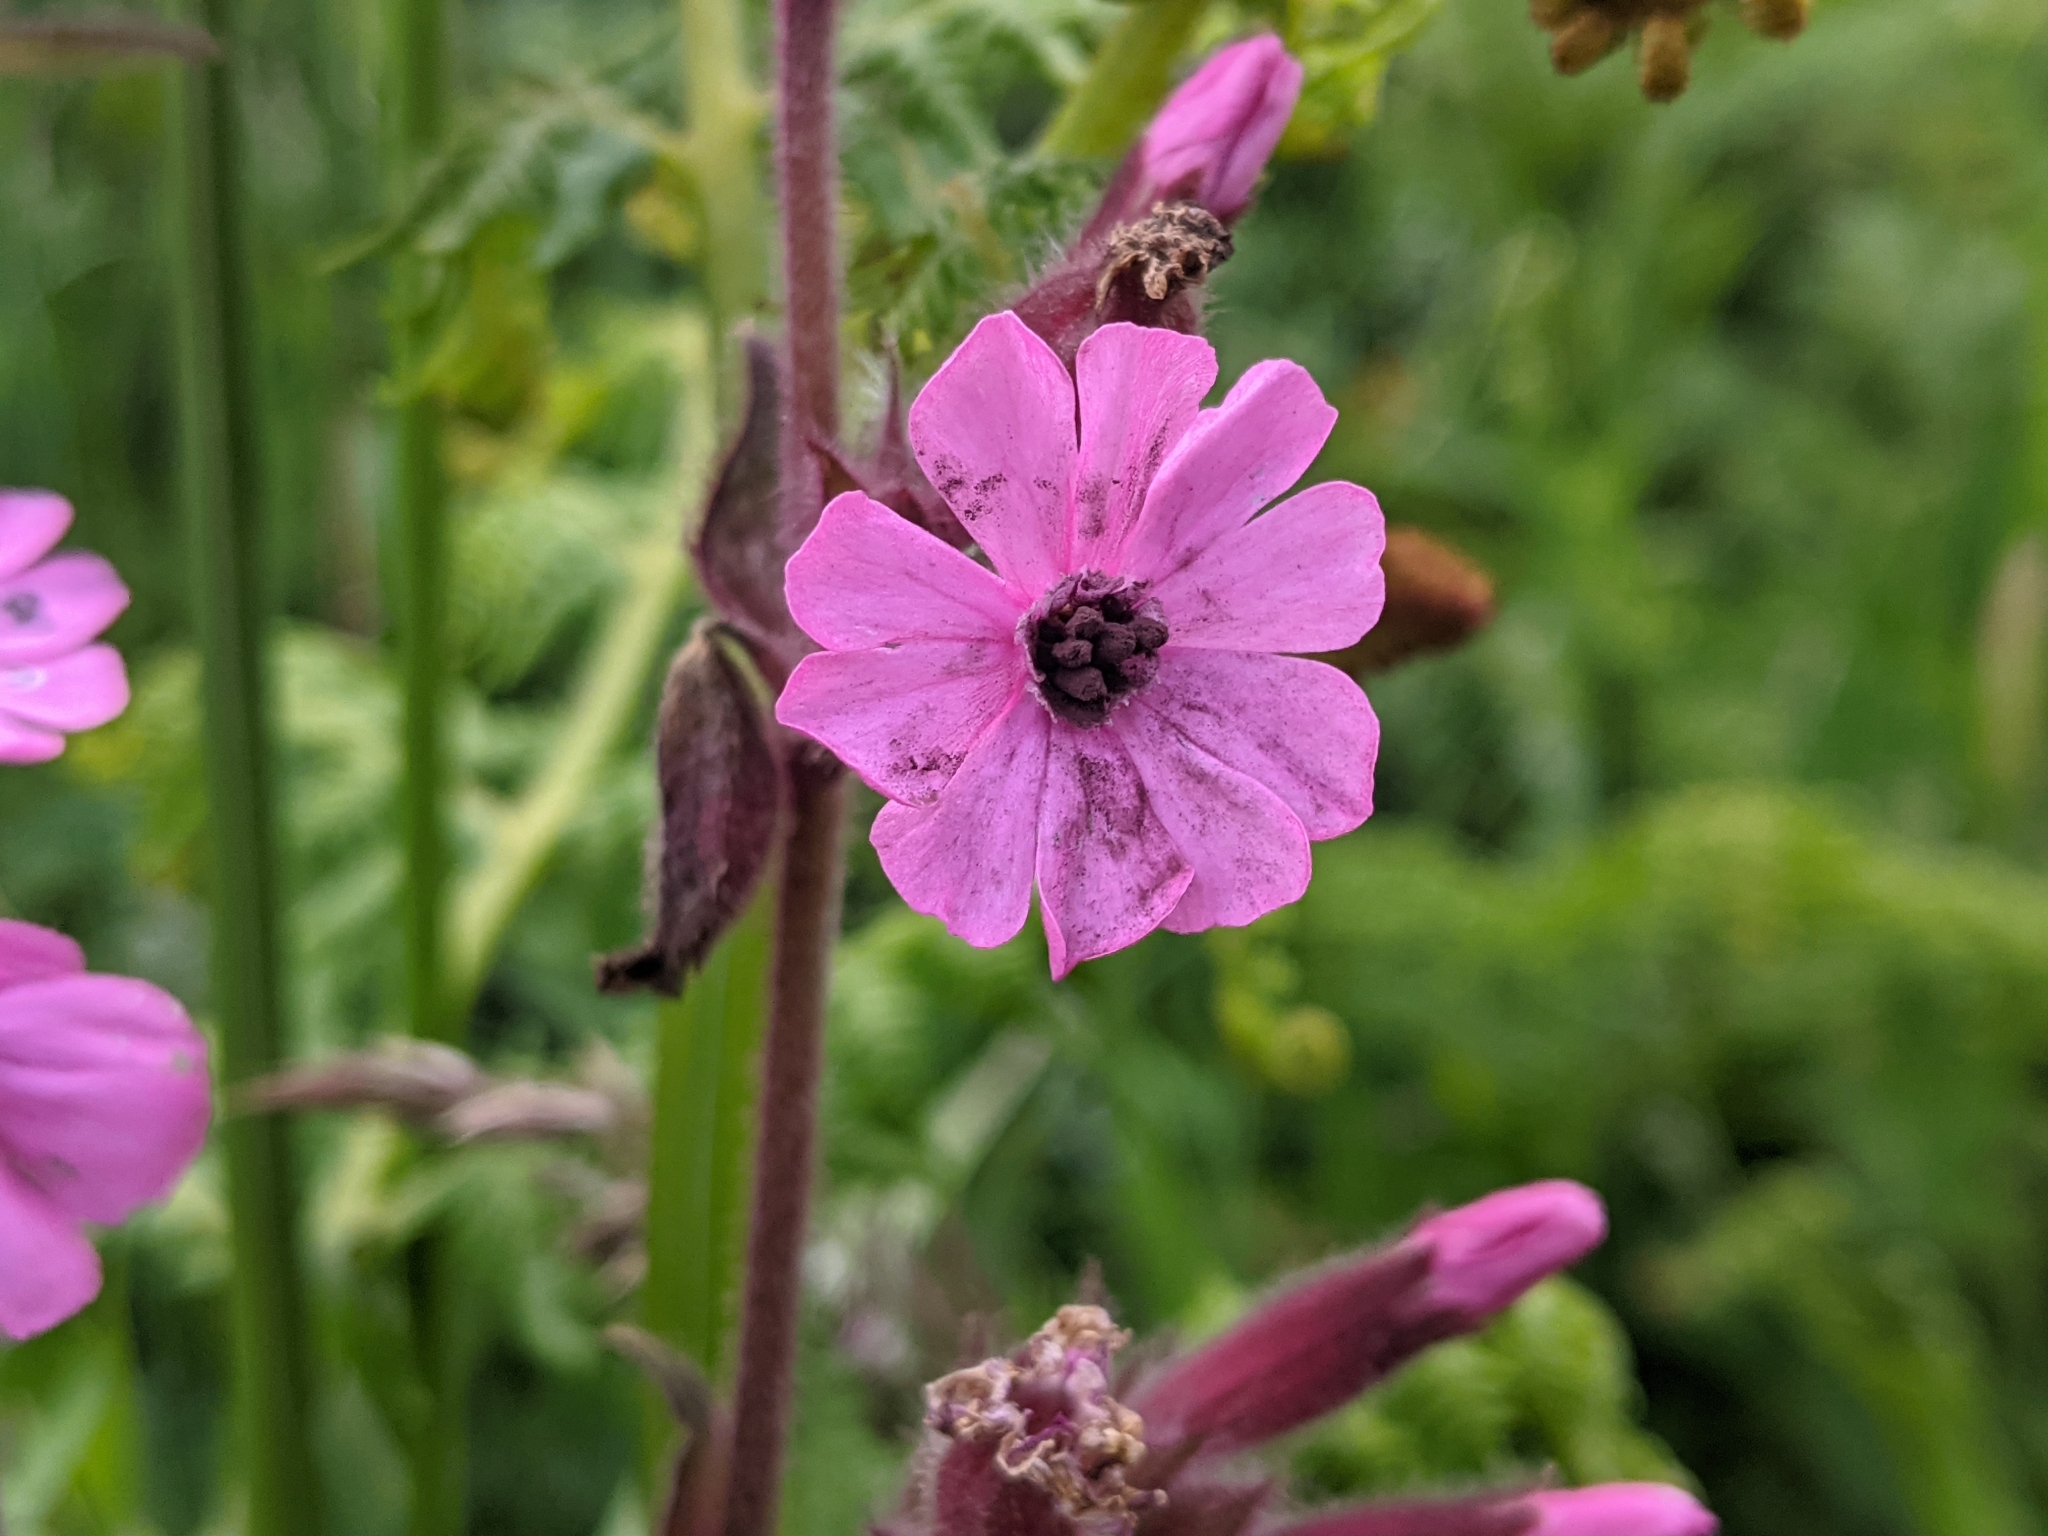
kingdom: Fungi
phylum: Basidiomycota
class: Microbotryomycetes
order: Microbotryales
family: Microbotryaceae
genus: Microbotryum
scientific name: Microbotryum silenes-dioicae
